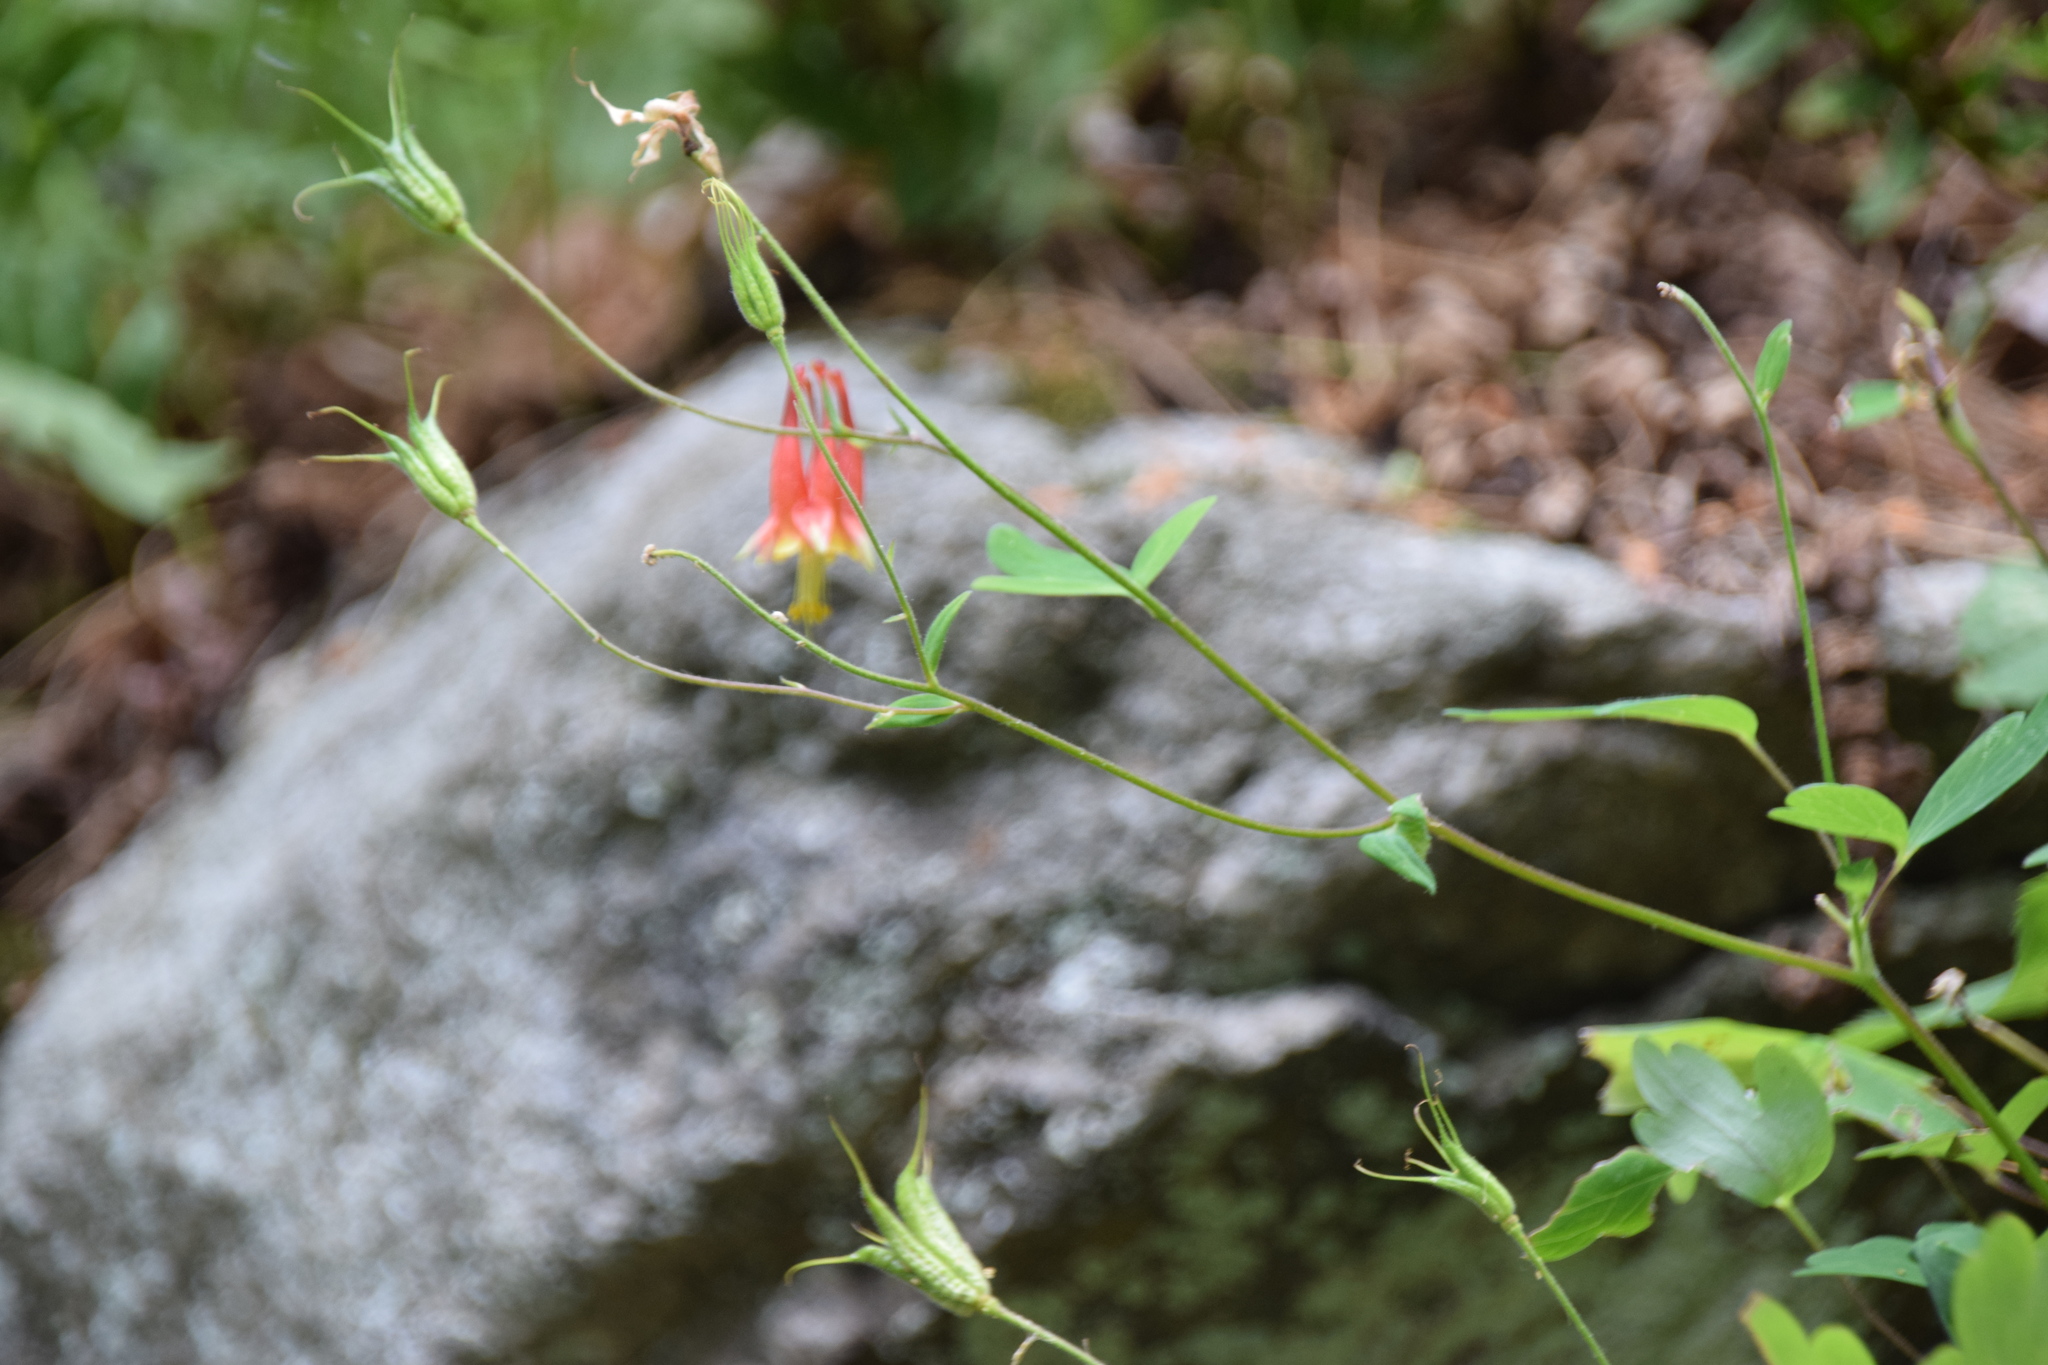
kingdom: Plantae
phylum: Tracheophyta
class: Magnoliopsida
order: Ranunculales
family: Ranunculaceae
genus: Aquilegia
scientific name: Aquilegia canadensis
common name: American columbine
